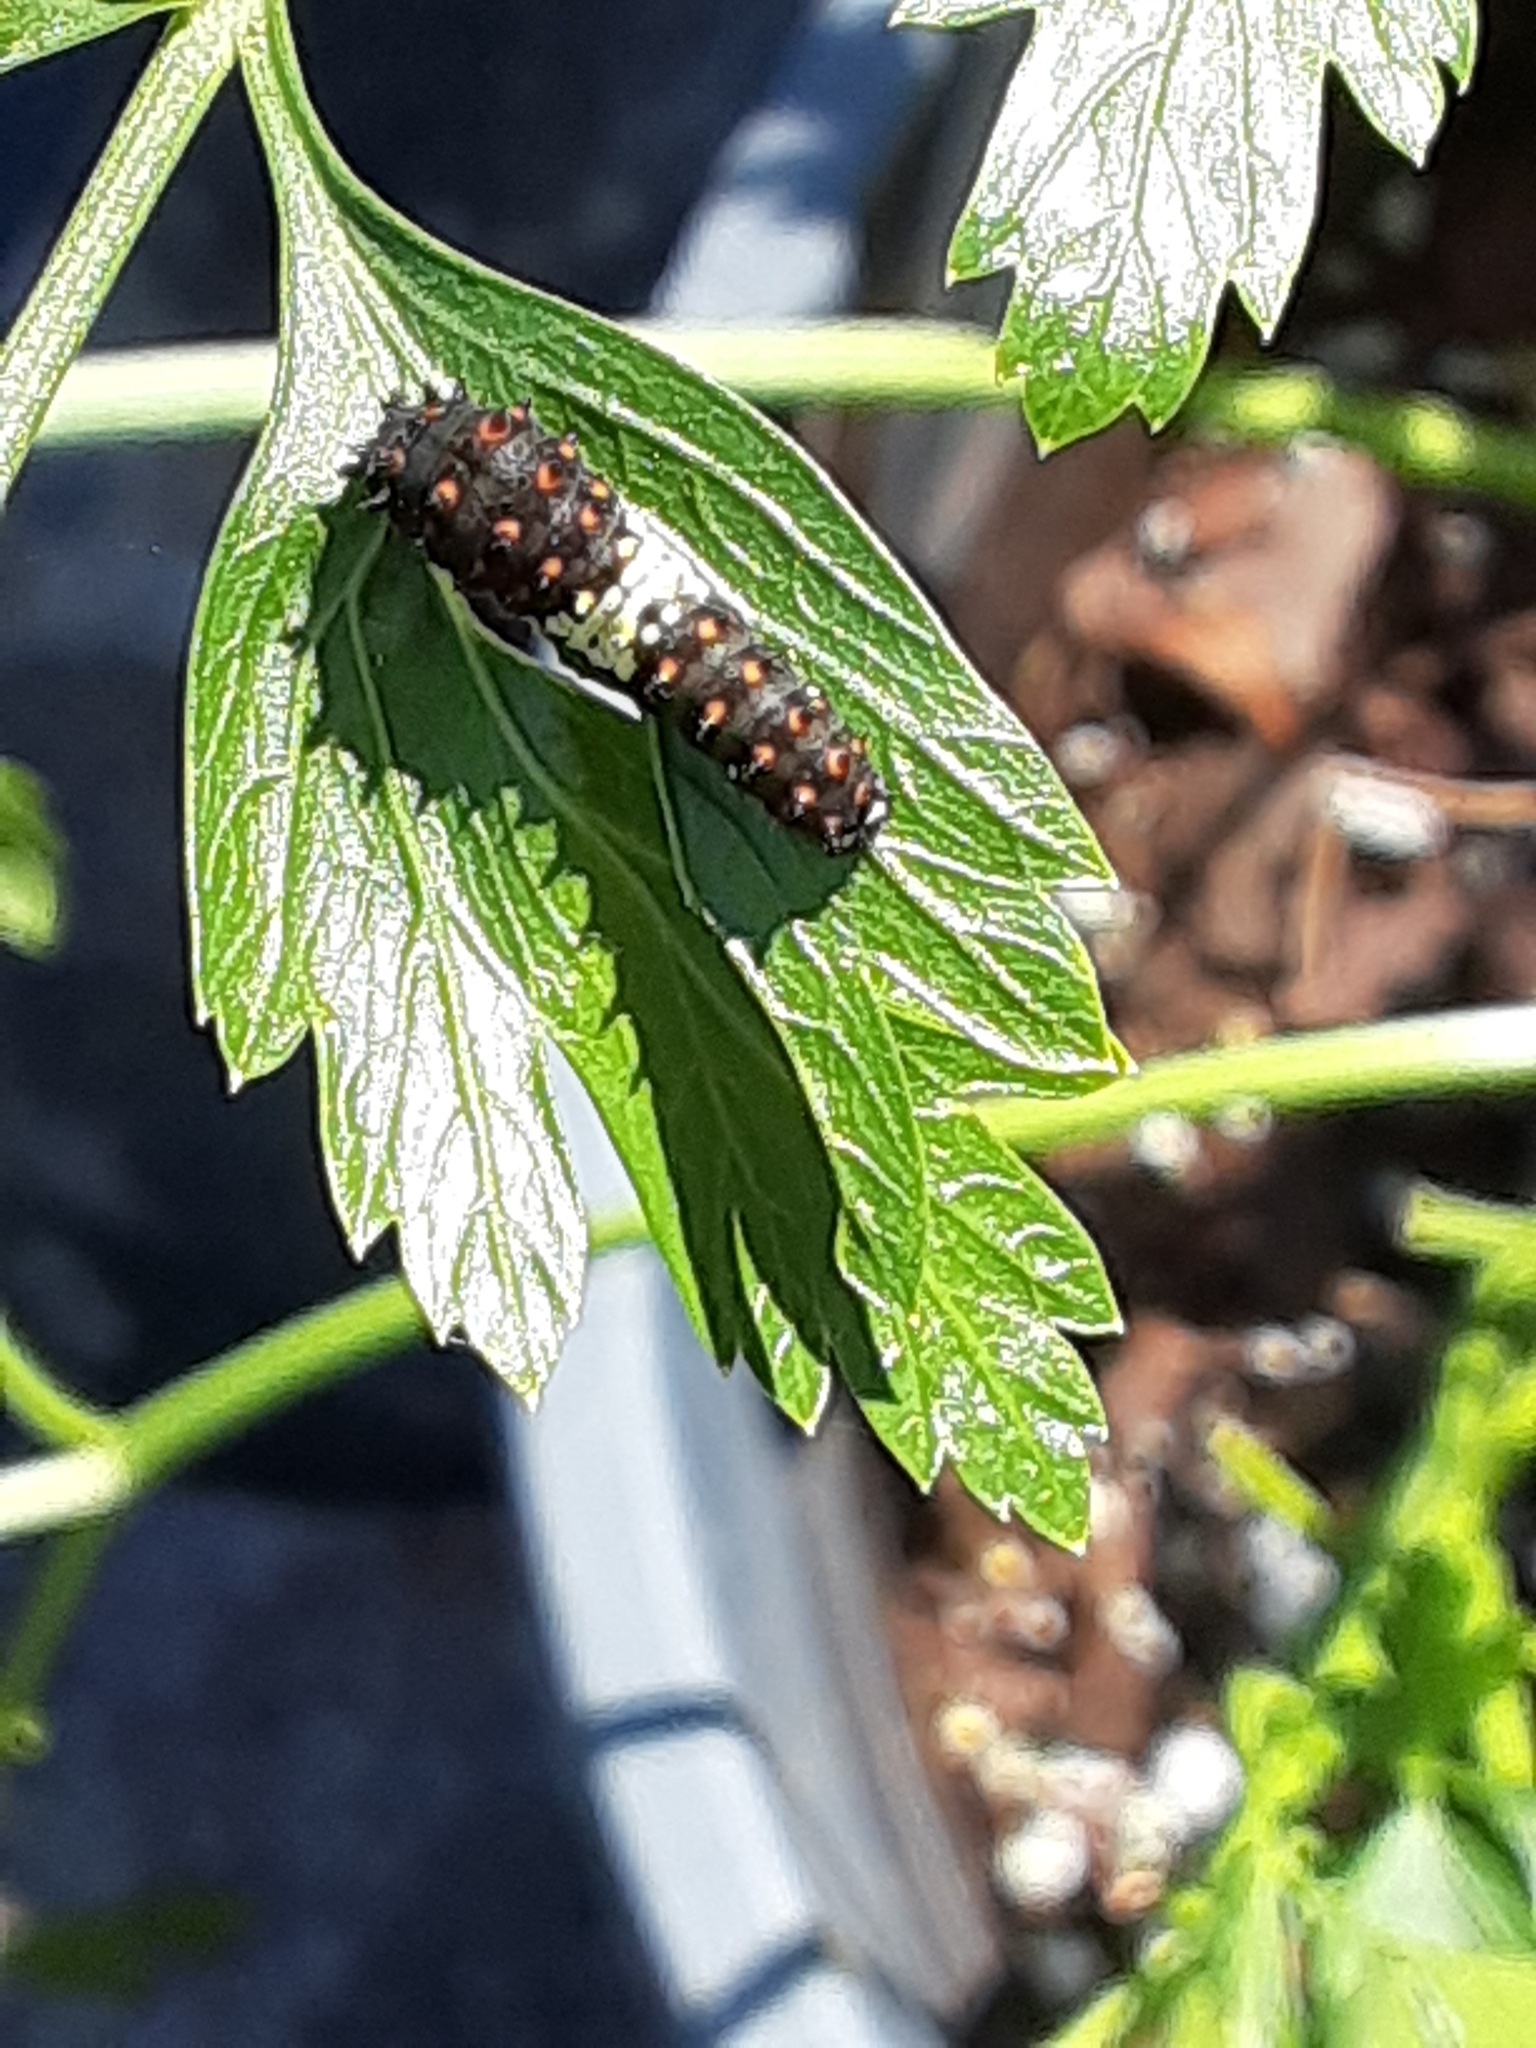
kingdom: Animalia
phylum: Arthropoda
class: Insecta
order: Lepidoptera
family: Papilionidae
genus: Papilio
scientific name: Papilio polyxenes
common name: Black swallowtail
